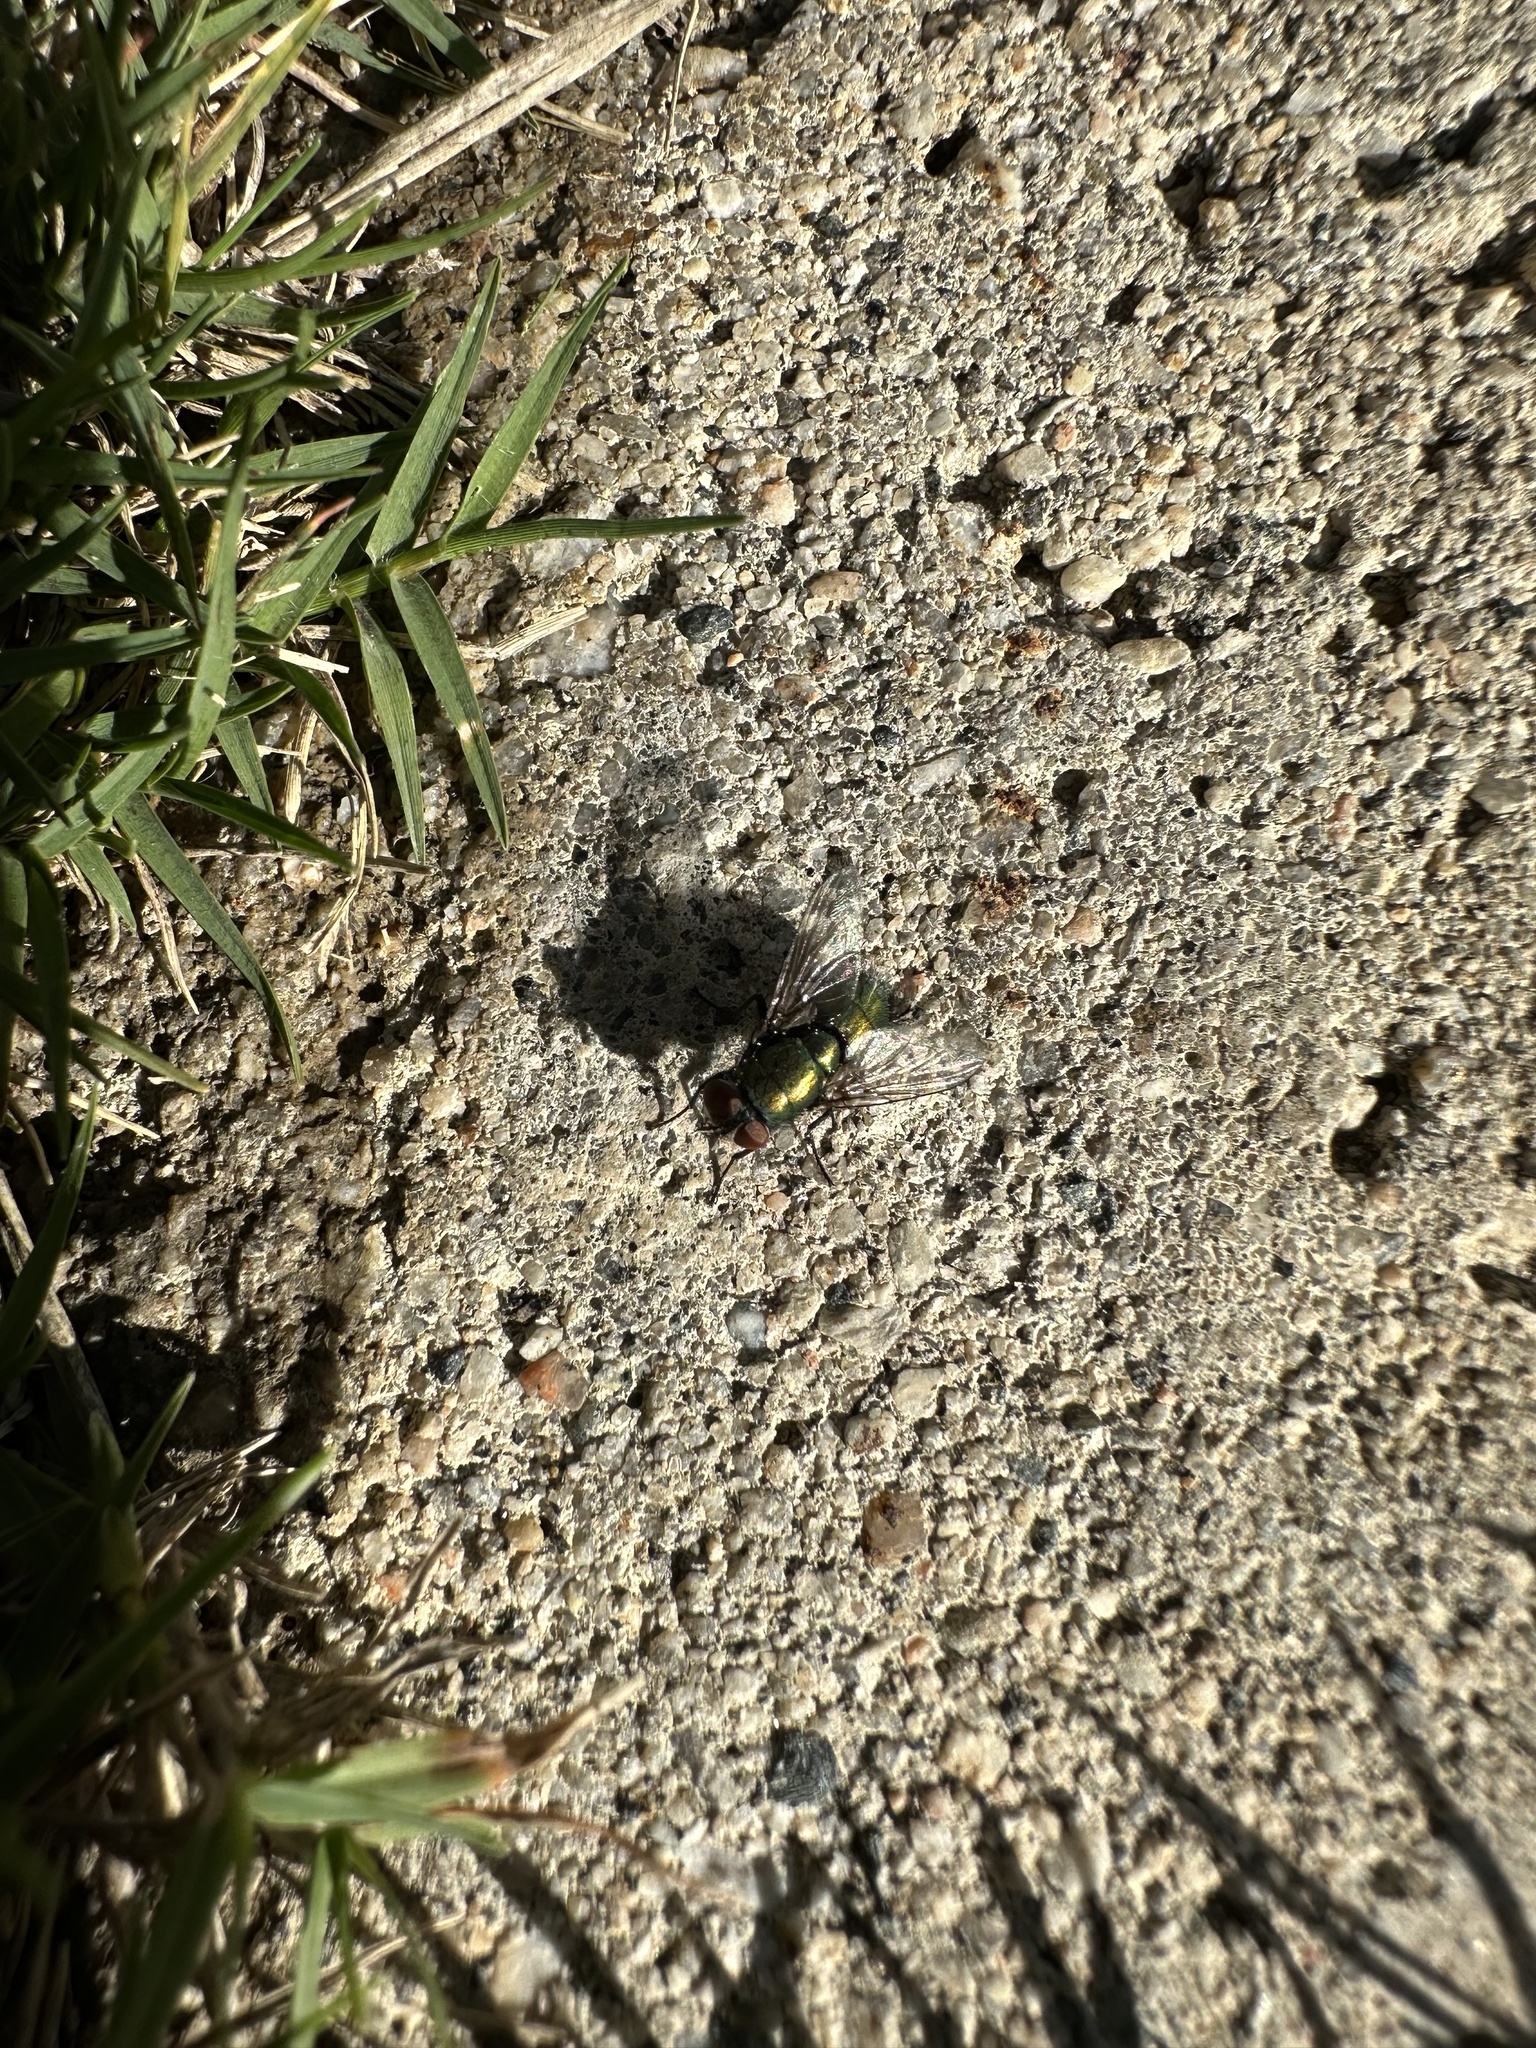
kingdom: Animalia
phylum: Arthropoda
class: Insecta
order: Diptera
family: Calliphoridae
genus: Lucilia
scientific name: Lucilia sericata
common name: Blow fly
